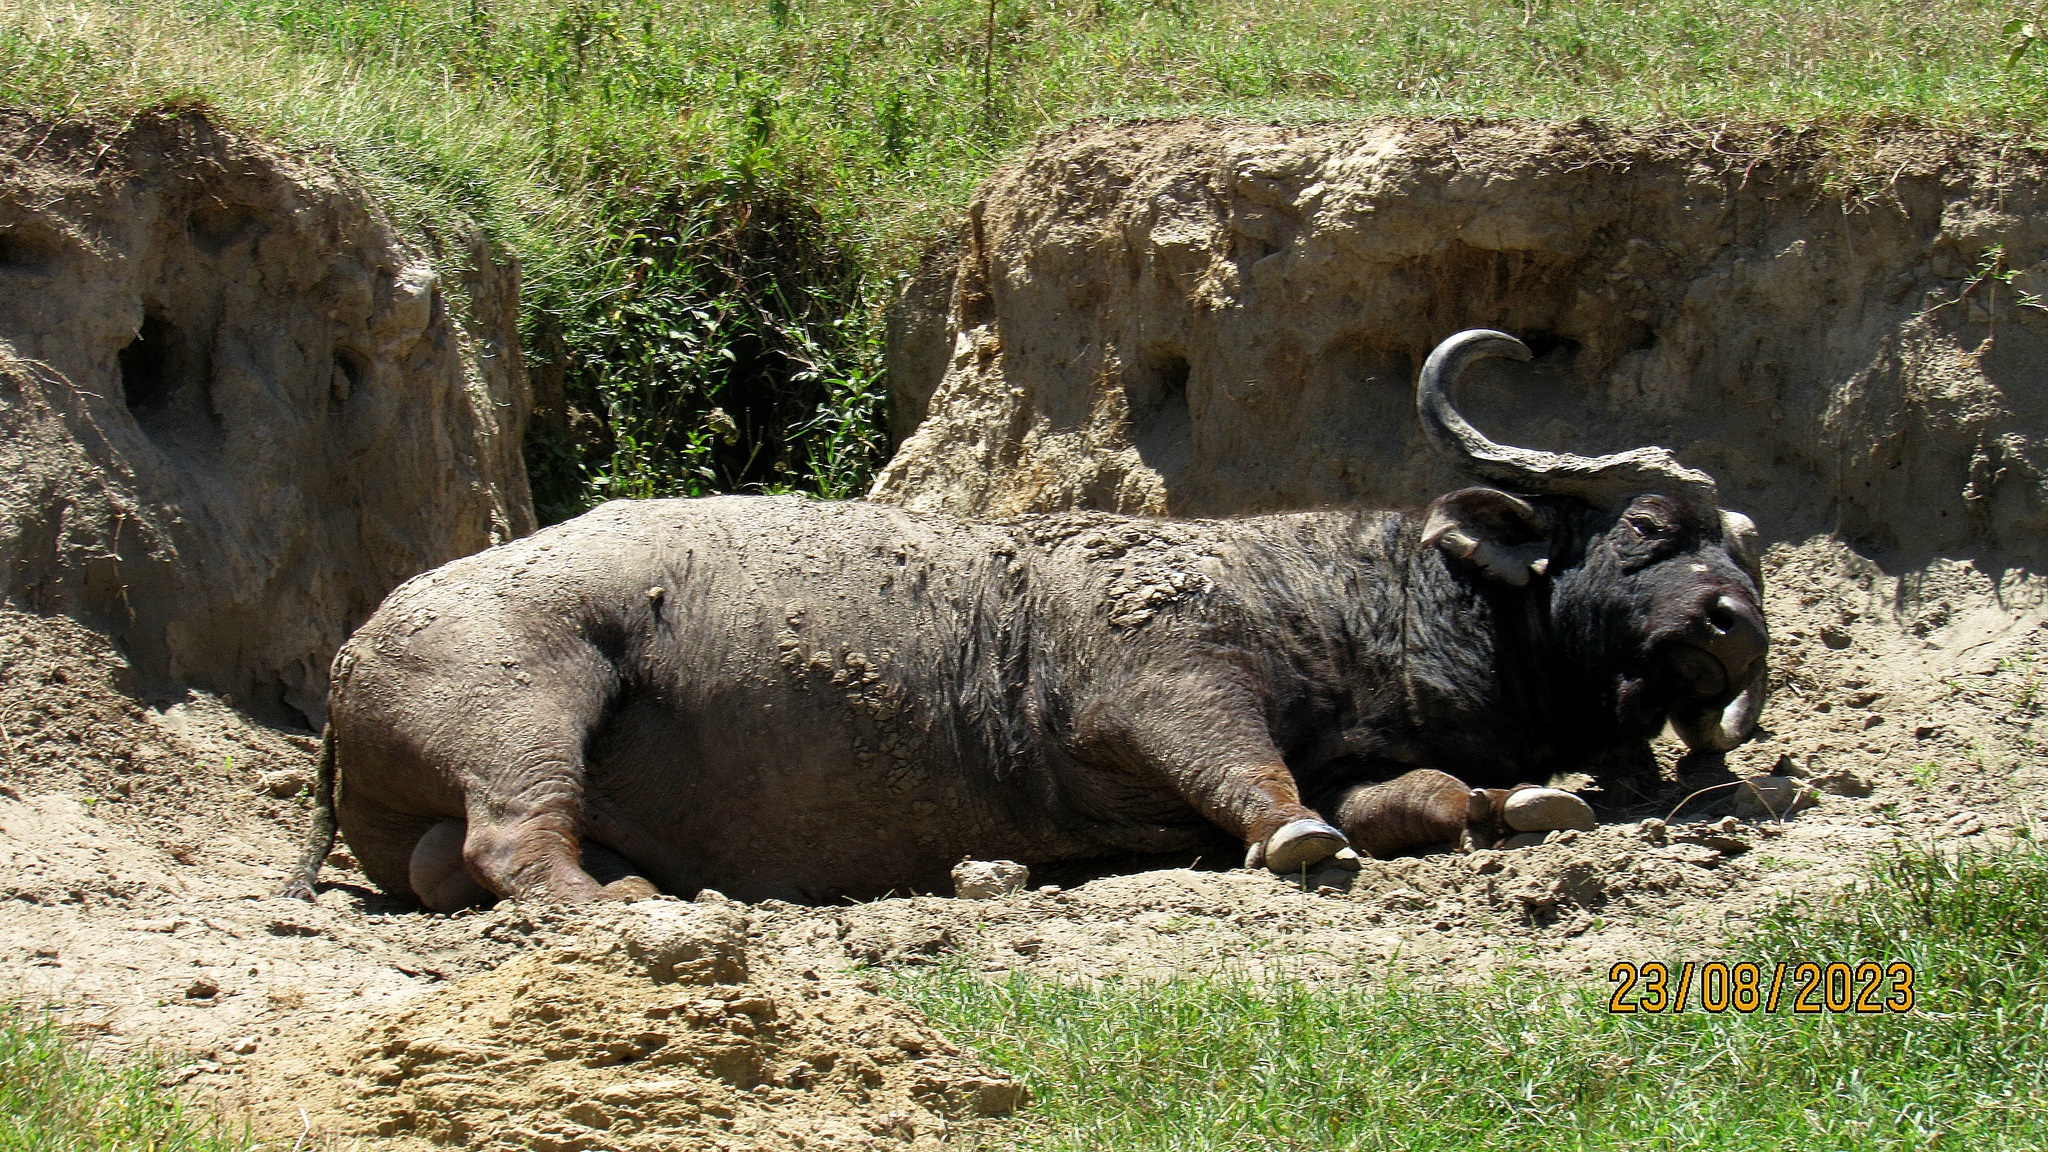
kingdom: Animalia
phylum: Chordata
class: Mammalia
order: Artiodactyla
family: Bovidae
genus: Syncerus
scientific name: Syncerus caffer
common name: African buffalo
